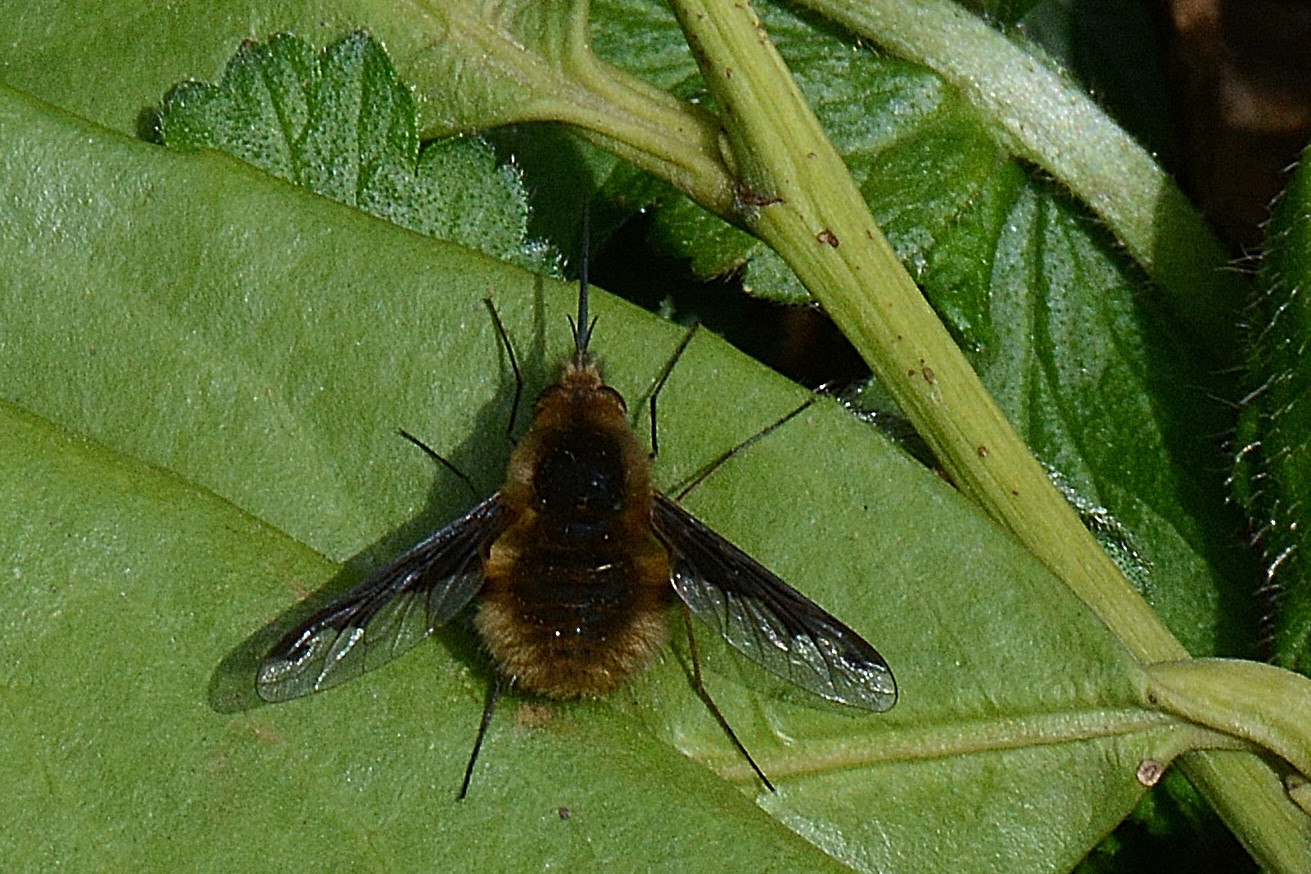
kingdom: Animalia
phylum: Arthropoda
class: Insecta
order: Diptera
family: Bombyliidae
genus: Bombylius
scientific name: Bombylius major
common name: Bee fly
